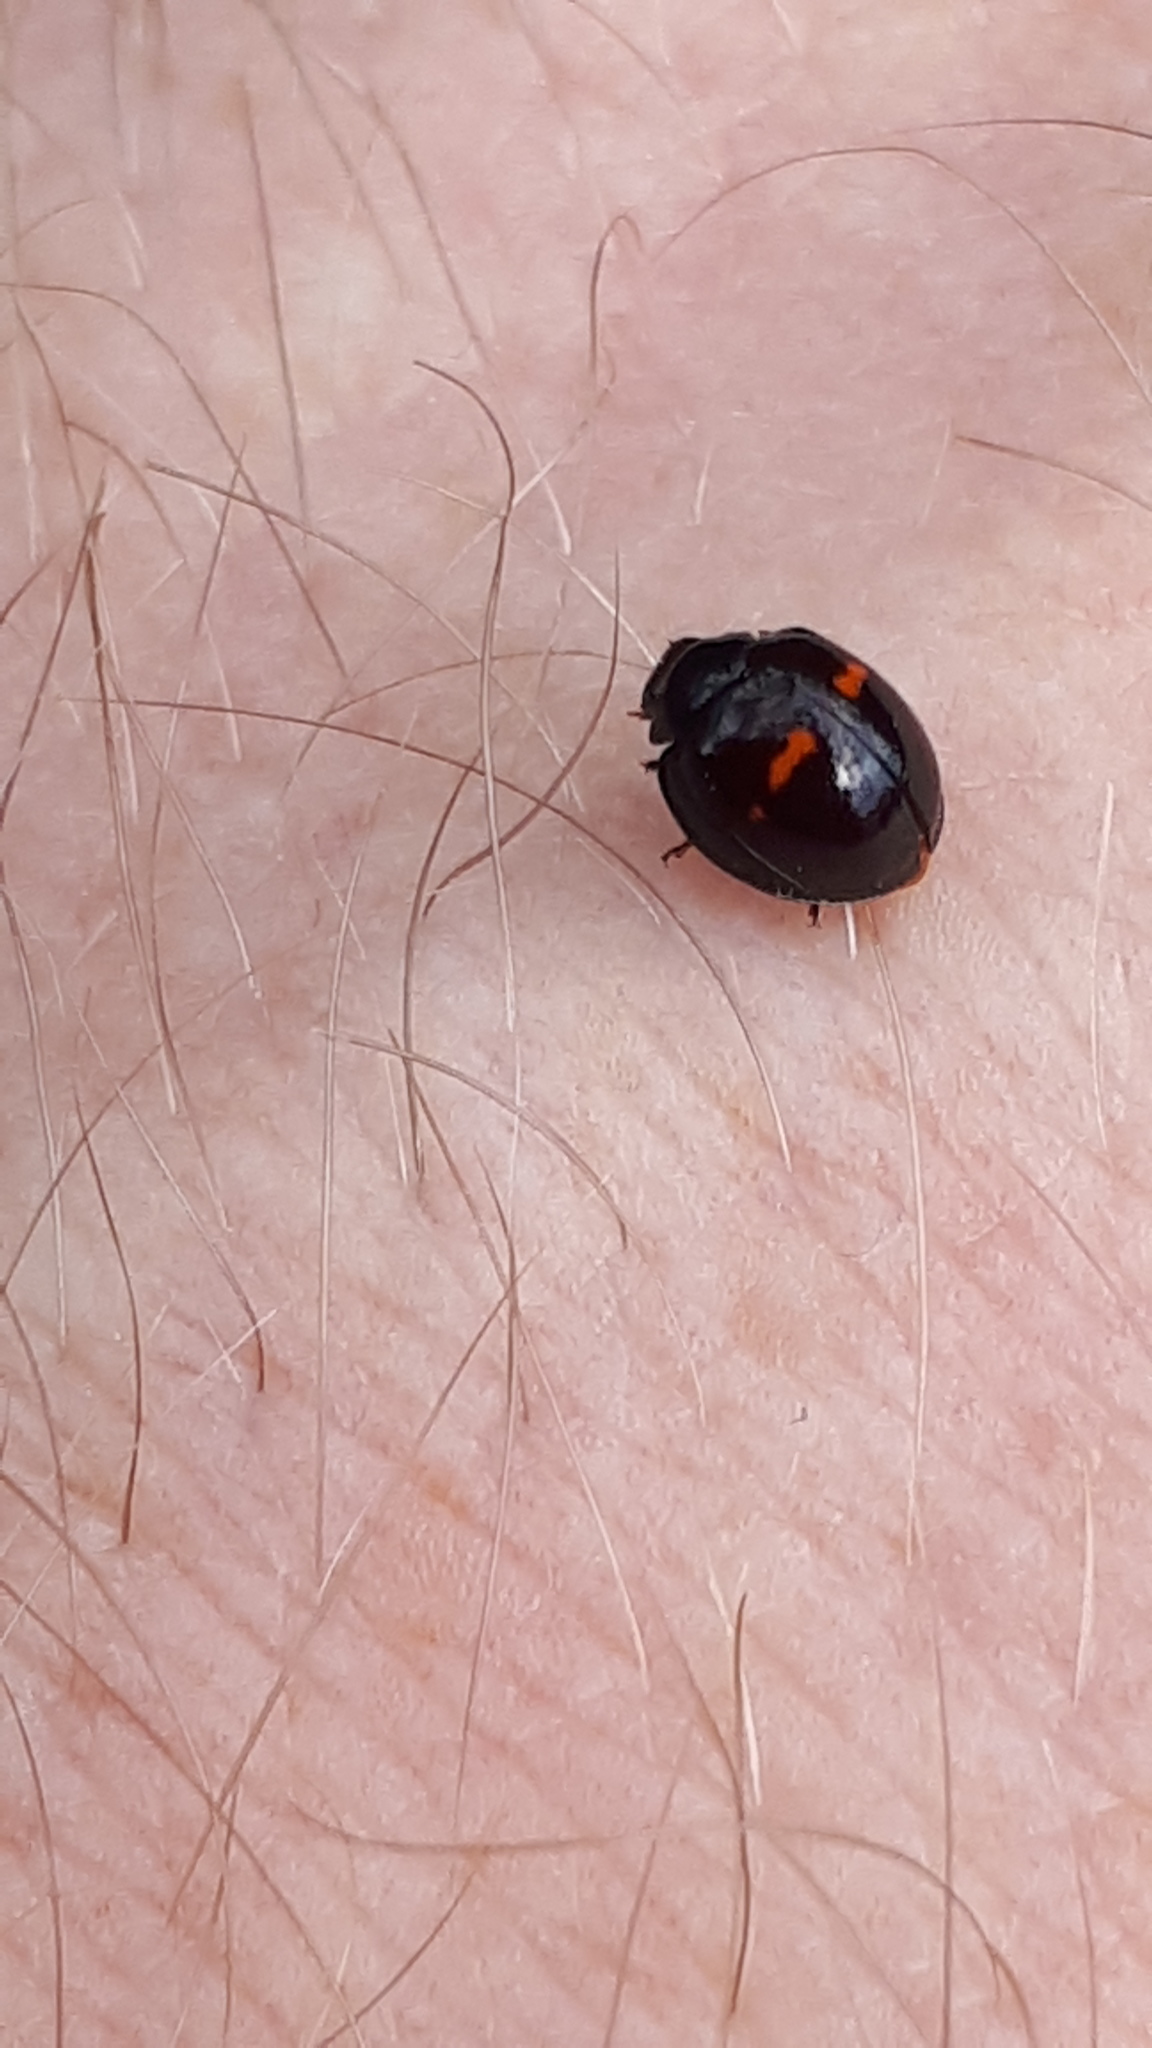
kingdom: Animalia
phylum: Arthropoda
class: Insecta
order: Coleoptera
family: Coccinellidae
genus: Chilocorus
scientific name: Chilocorus bipustulatus
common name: Heather ladybird
